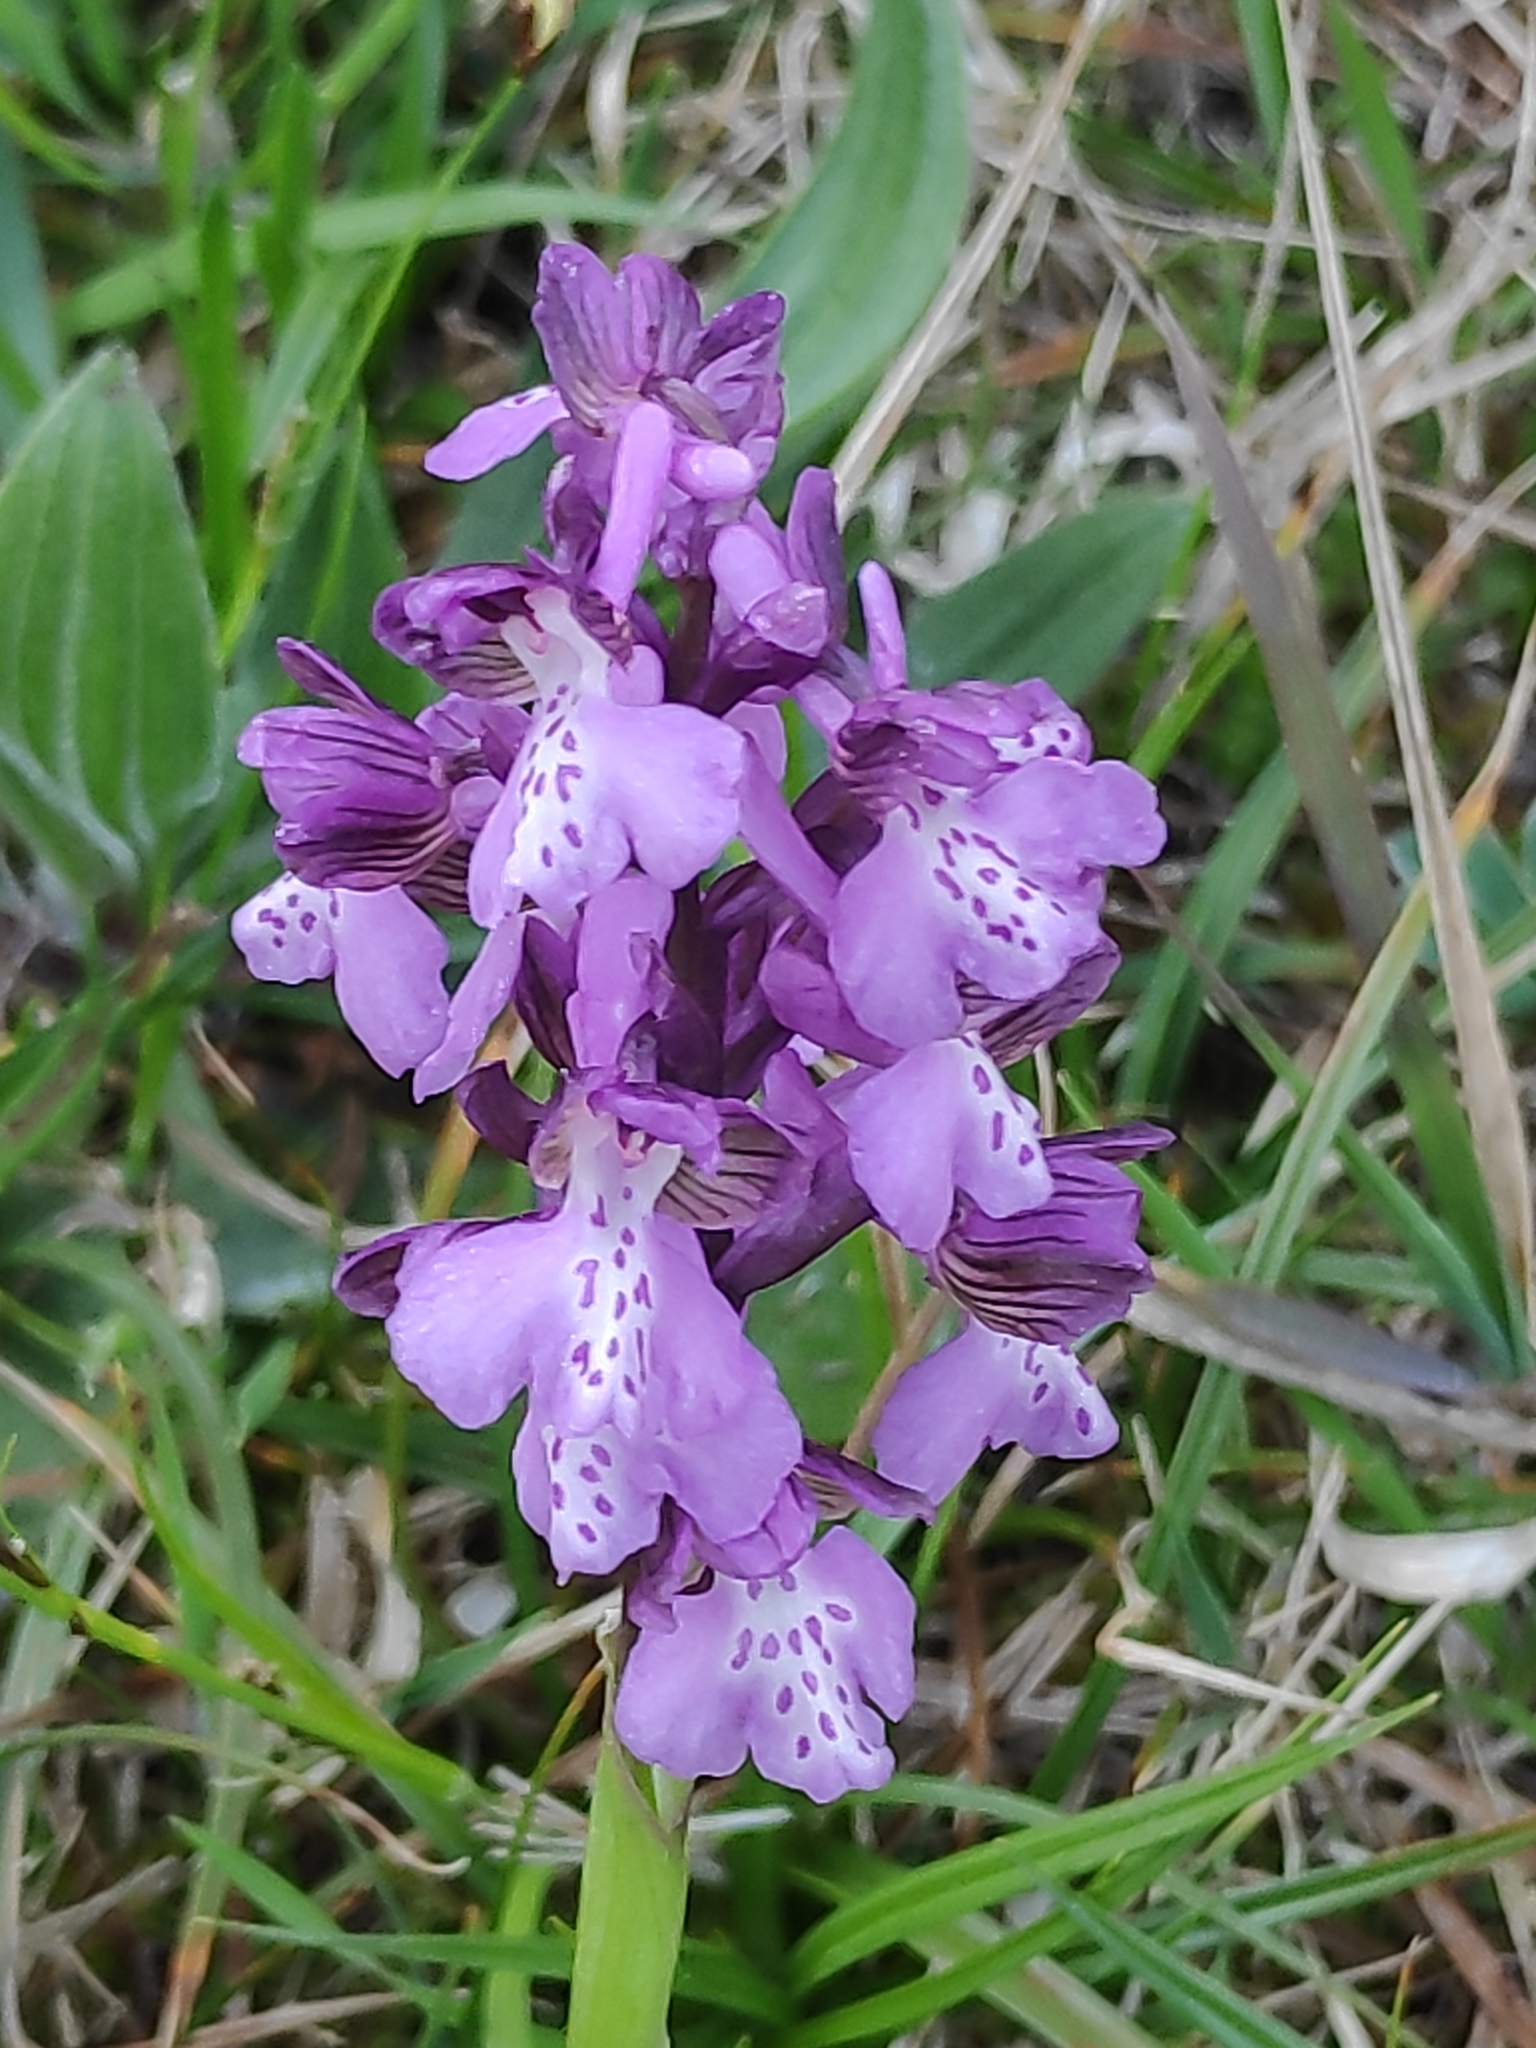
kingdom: Plantae
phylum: Tracheophyta
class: Liliopsida
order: Asparagales
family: Orchidaceae
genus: Anacamptis
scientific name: Anacamptis morio
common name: Green-winged orchid
